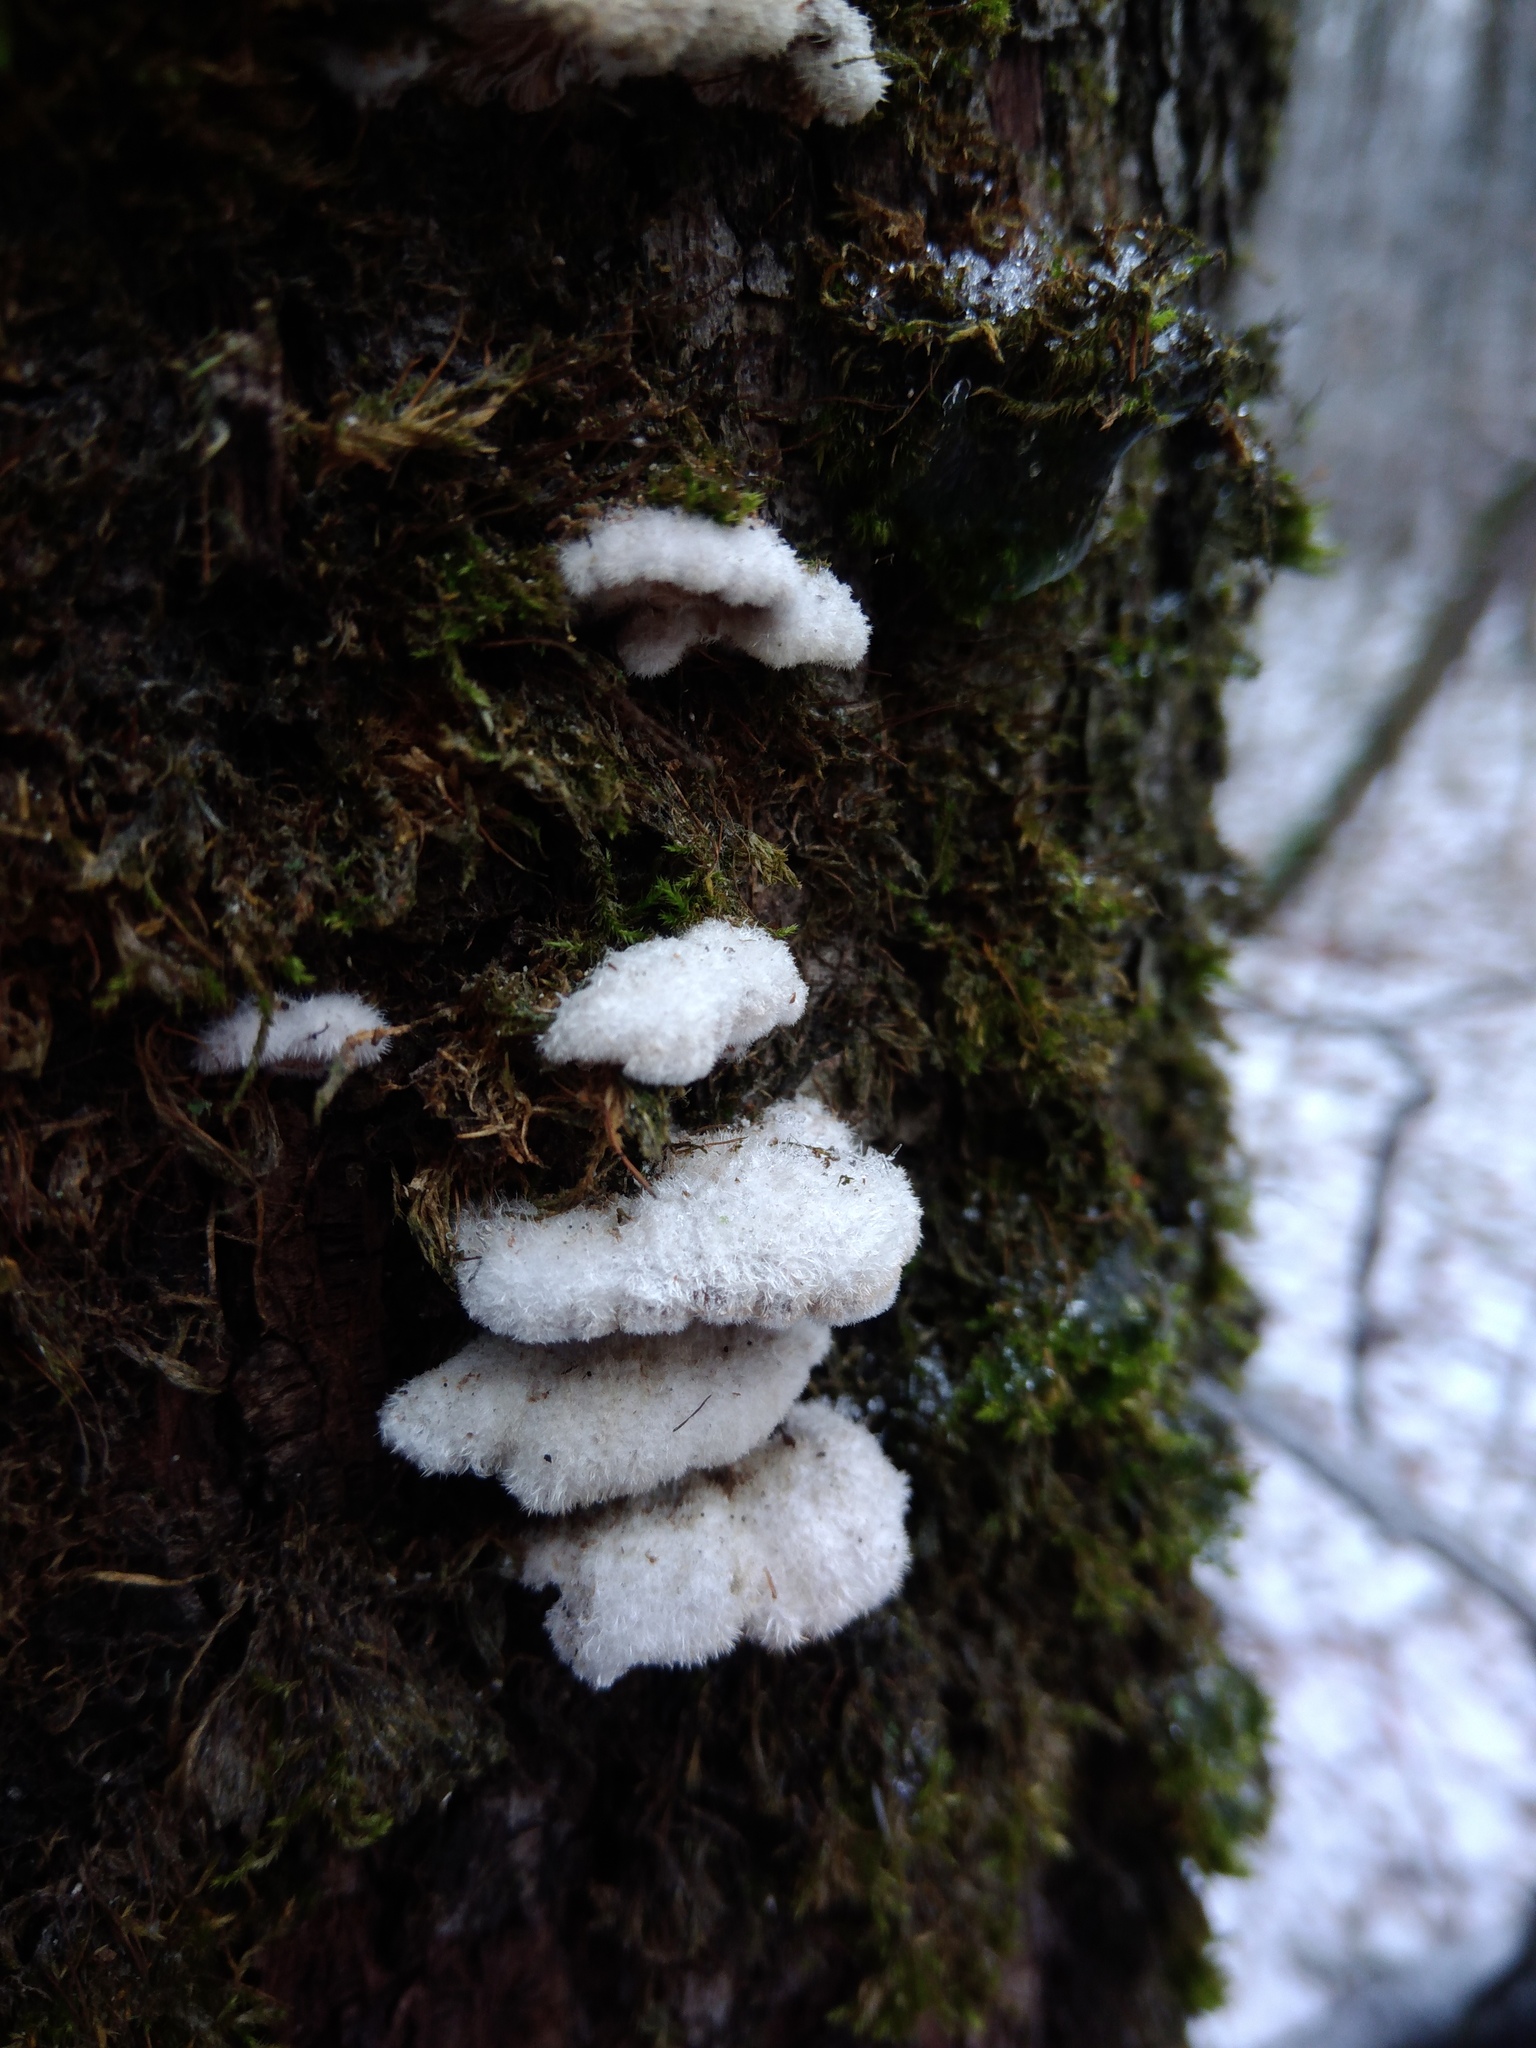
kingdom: Fungi
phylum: Basidiomycota
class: Agaricomycetes
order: Agaricales
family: Schizophyllaceae
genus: Schizophyllum
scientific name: Schizophyllum commune
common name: Common porecrust
